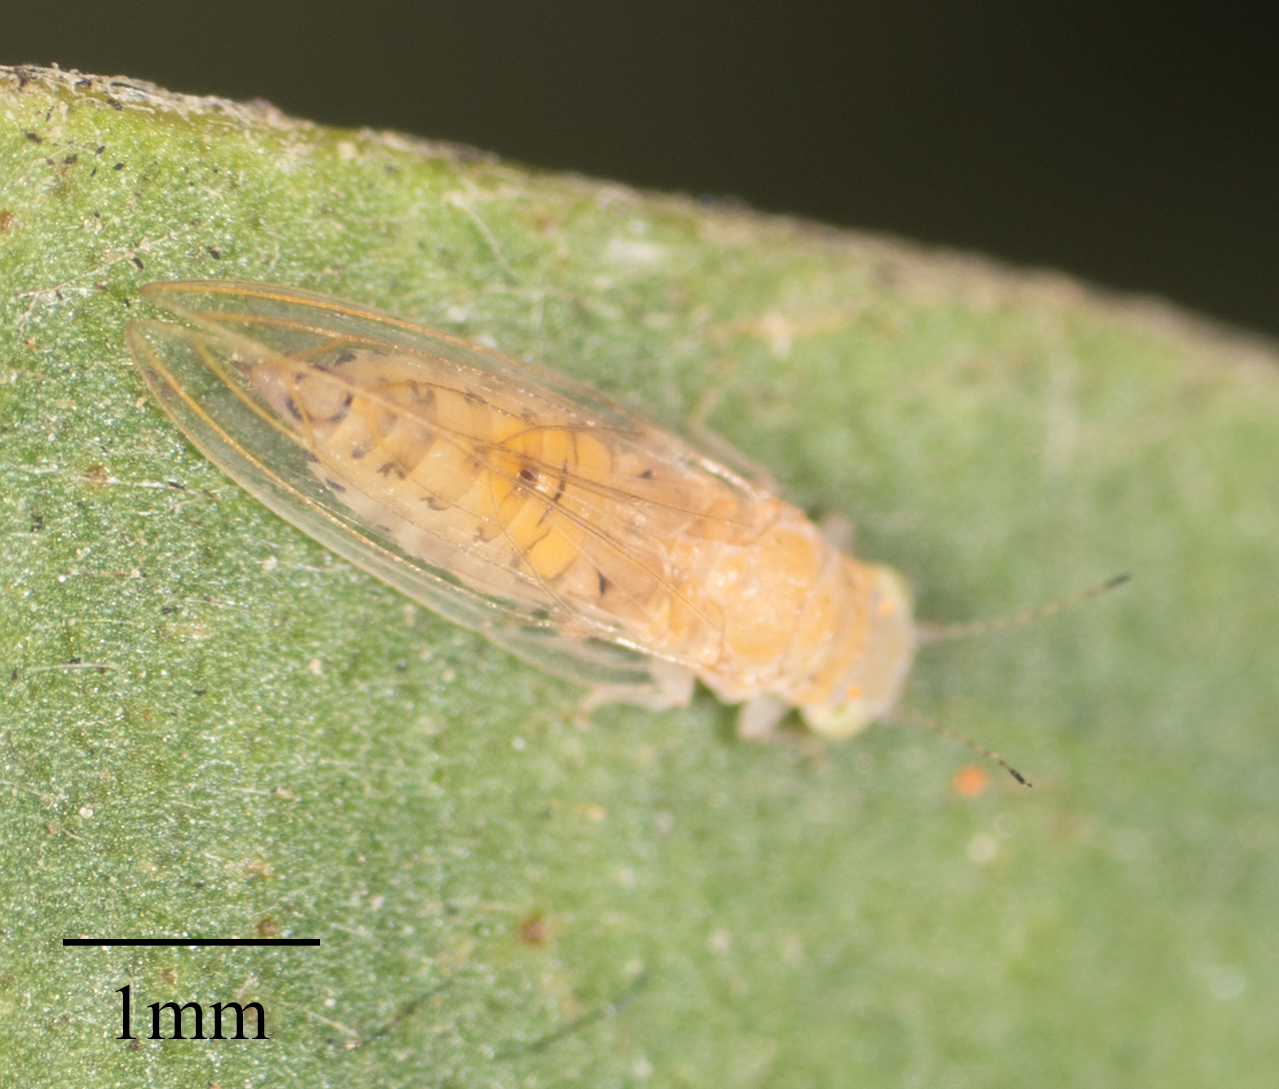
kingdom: Animalia
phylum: Arthropoda
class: Insecta
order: Hemiptera
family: Aphalaridae
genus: Boreioglycaspis
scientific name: Boreioglycaspis melaleucae
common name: Psyllid
